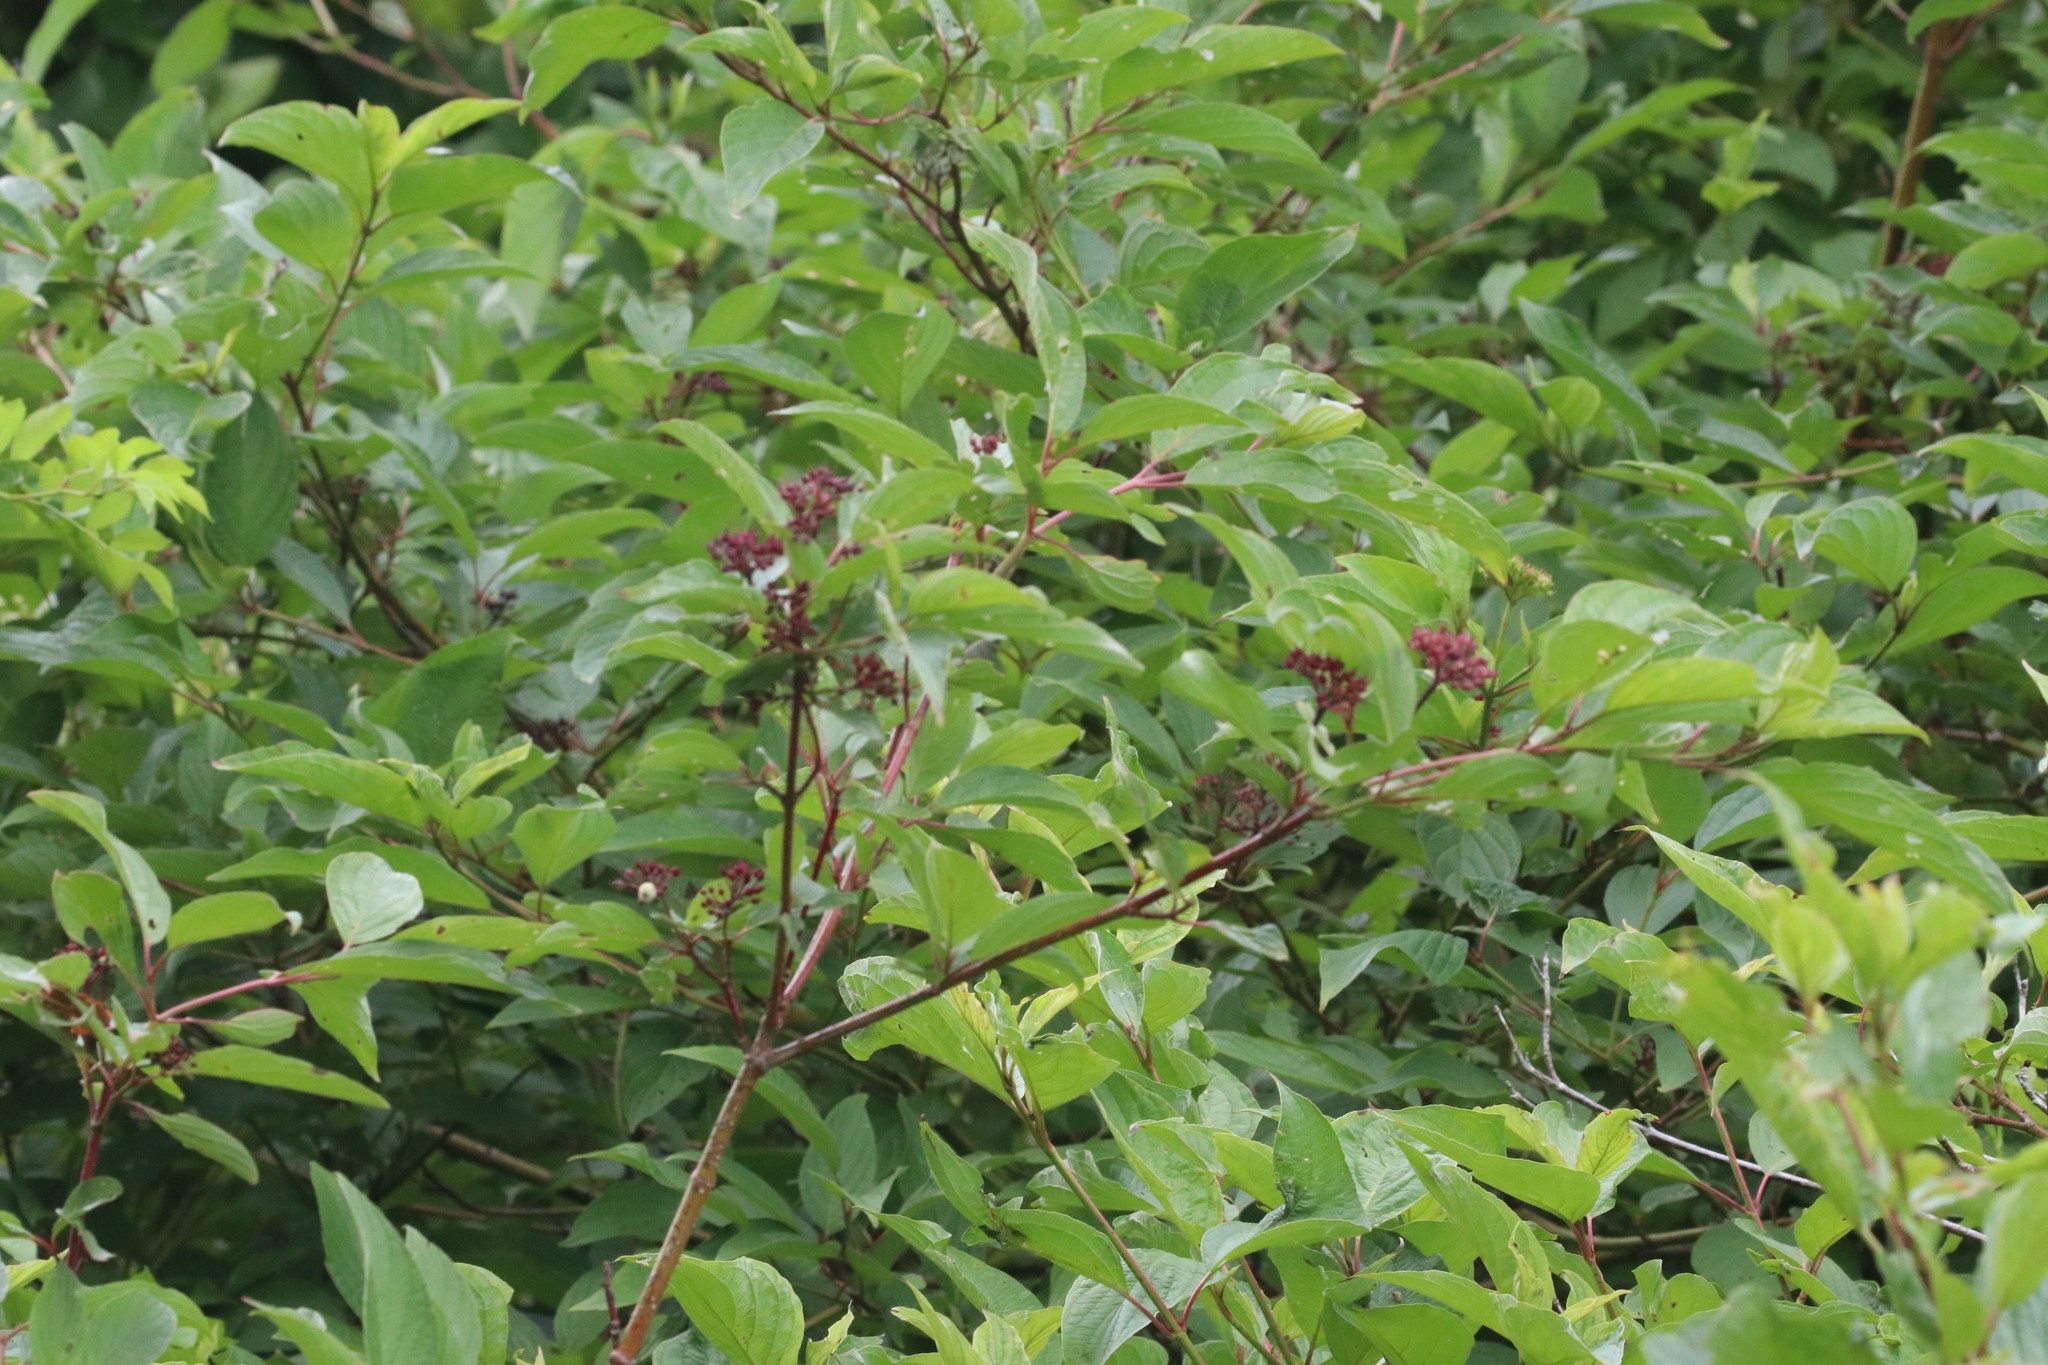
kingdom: Plantae
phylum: Tracheophyta
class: Magnoliopsida
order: Cornales
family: Cornaceae
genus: Cornus
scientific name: Cornus sericea
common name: Red-osier dogwood
